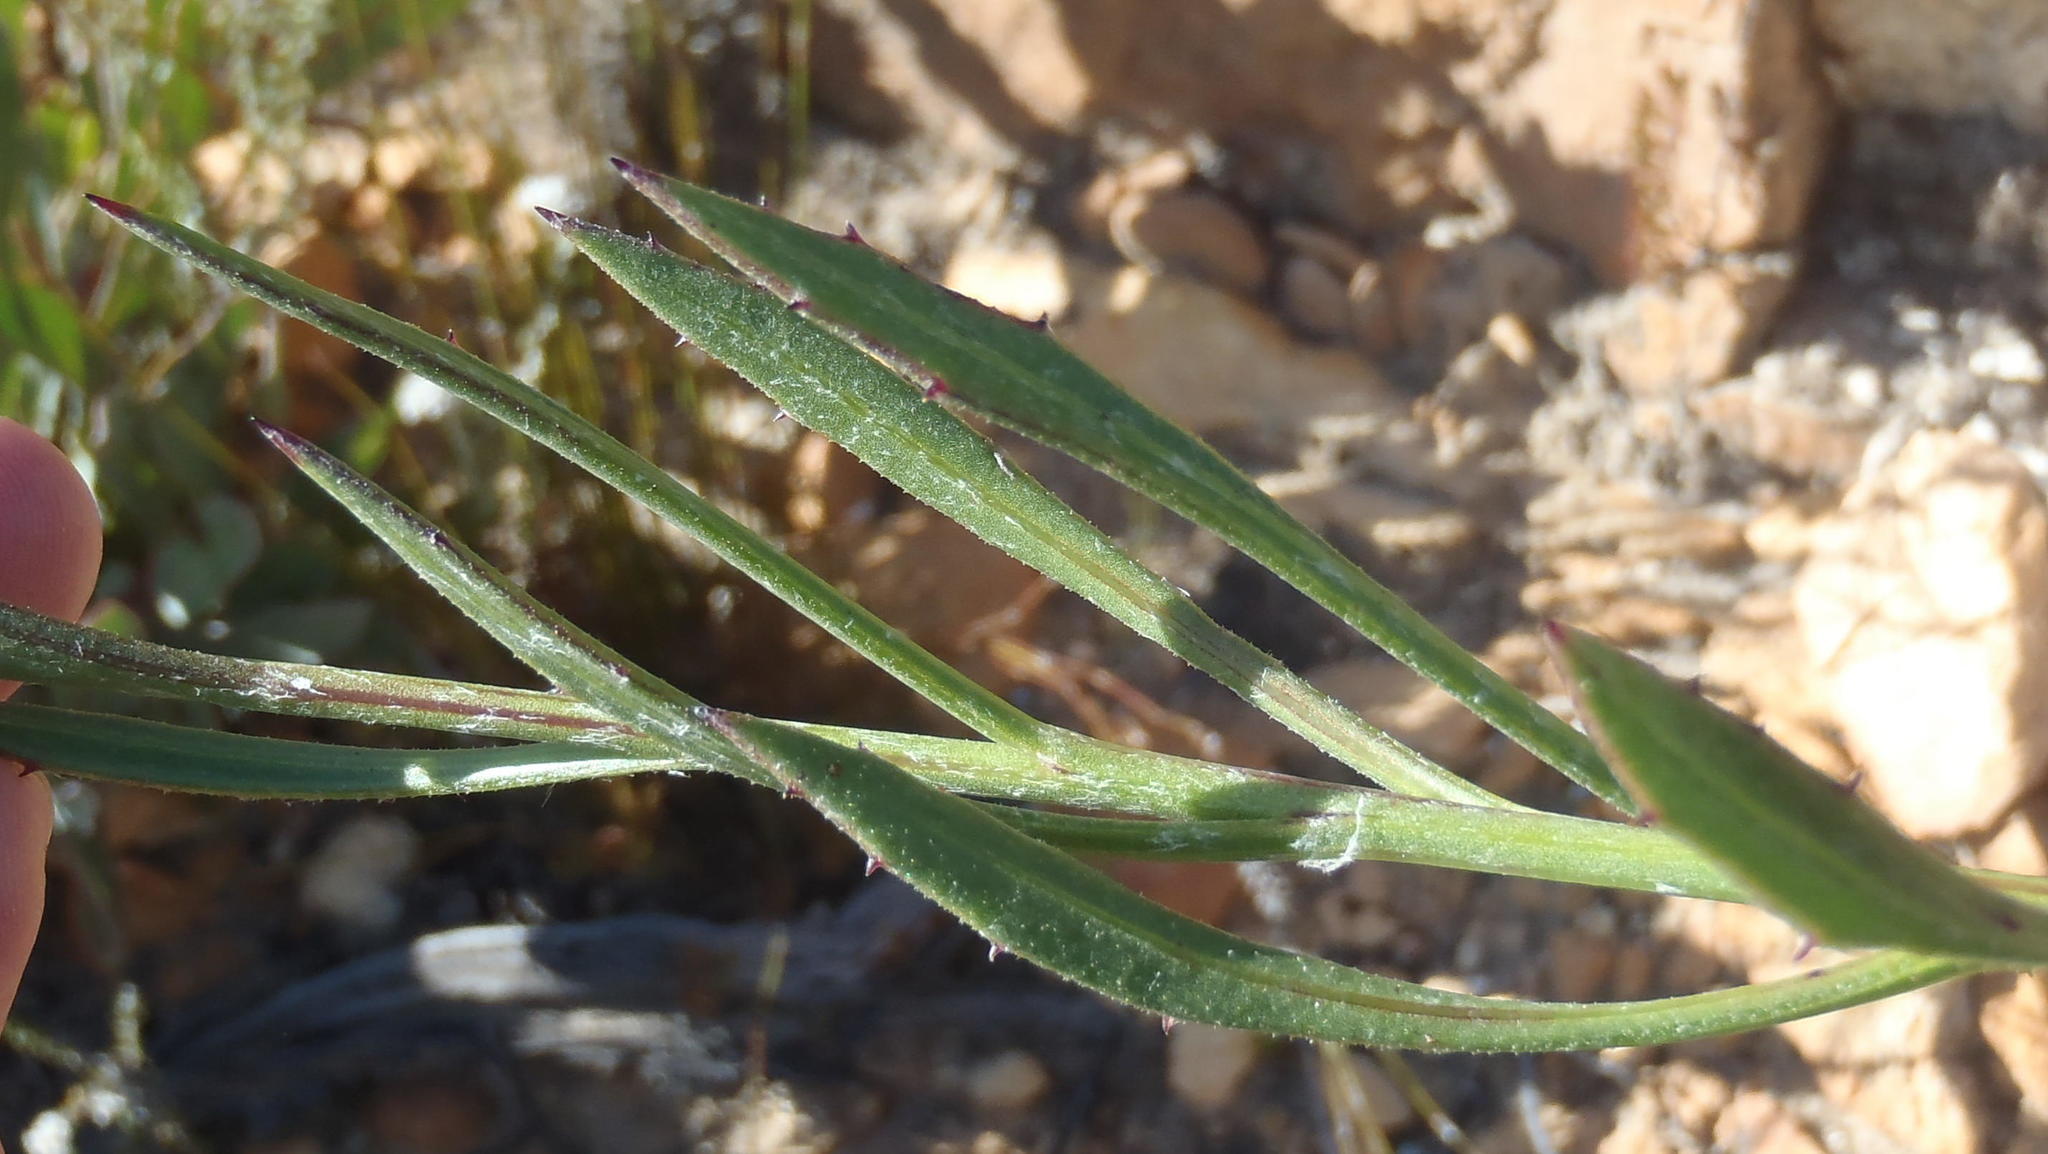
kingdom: Plantae
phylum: Tracheophyta
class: Magnoliopsida
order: Asterales
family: Asteraceae
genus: Osteospermum
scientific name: Osteospermum asperulum
